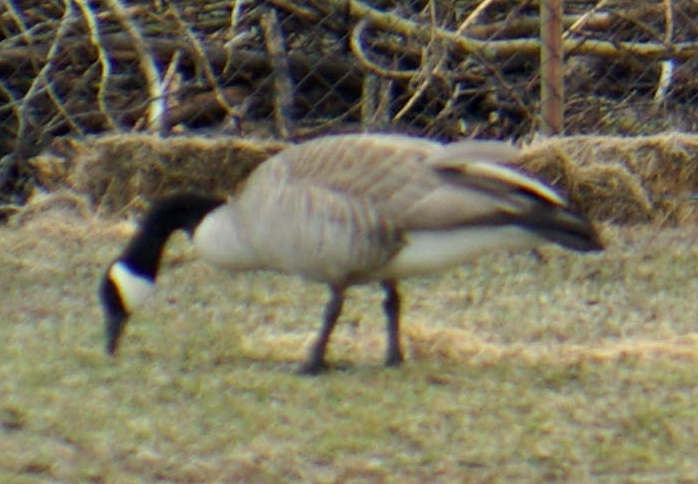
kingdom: Animalia
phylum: Chordata
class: Aves
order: Anseriformes
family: Anatidae
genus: Branta
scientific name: Branta canadensis
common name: Canada goose
